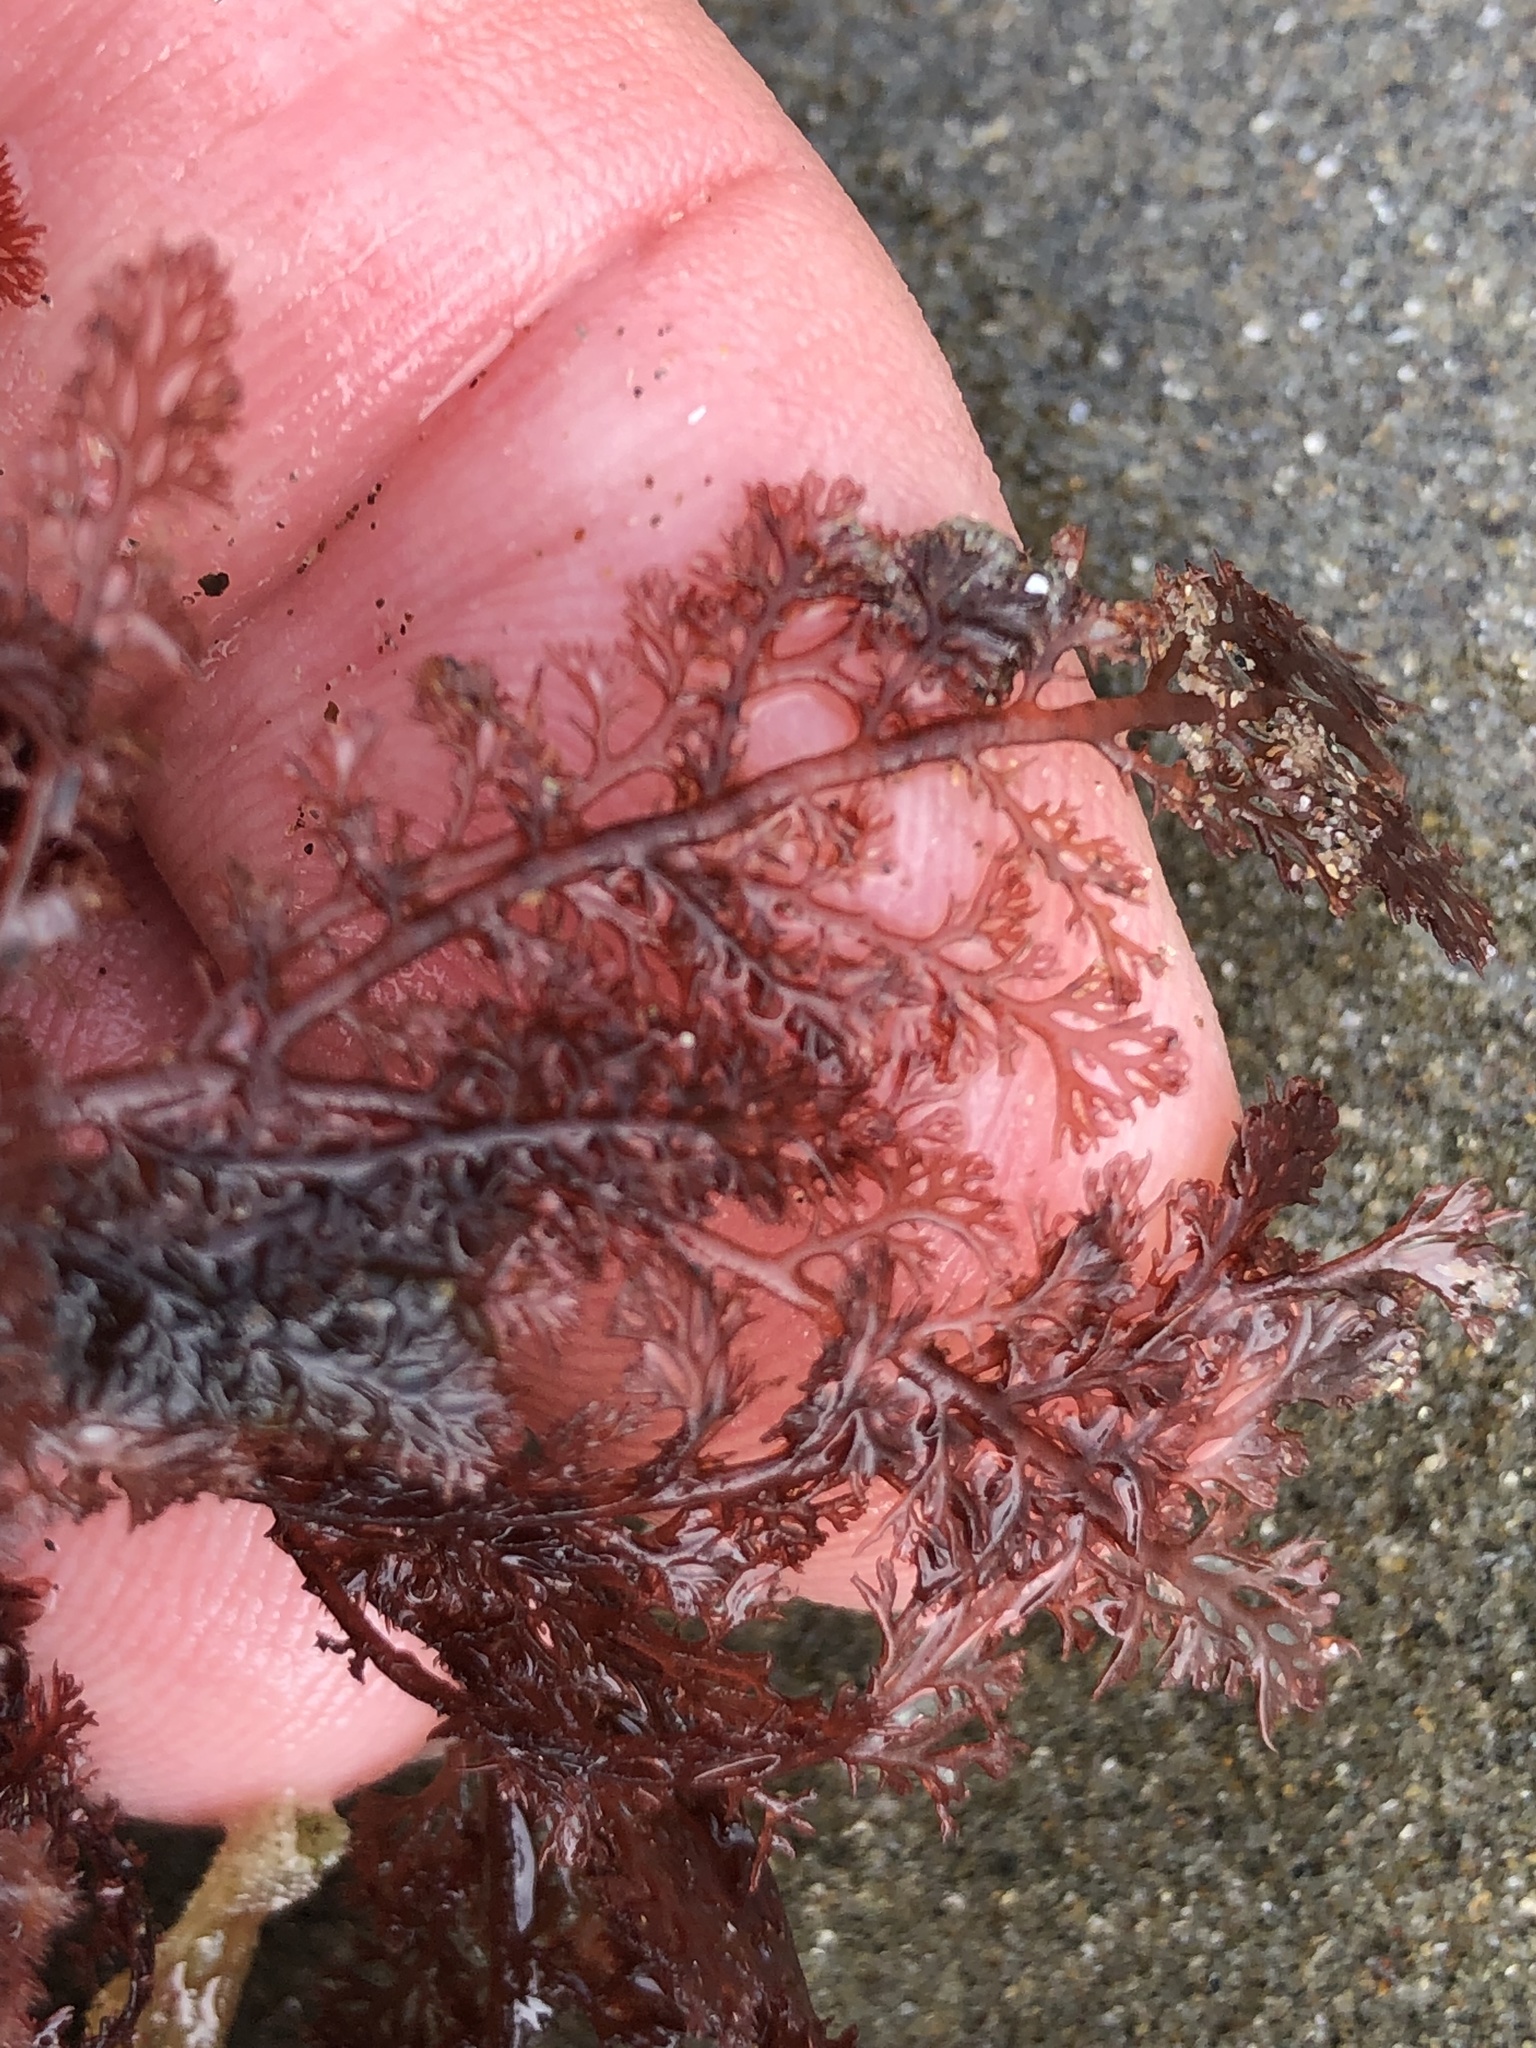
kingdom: Plantae
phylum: Rhodophyta
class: Florideophyceae
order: Ceramiales
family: Ceramiaceae
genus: Microcladia
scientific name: Microcladia coulteri
